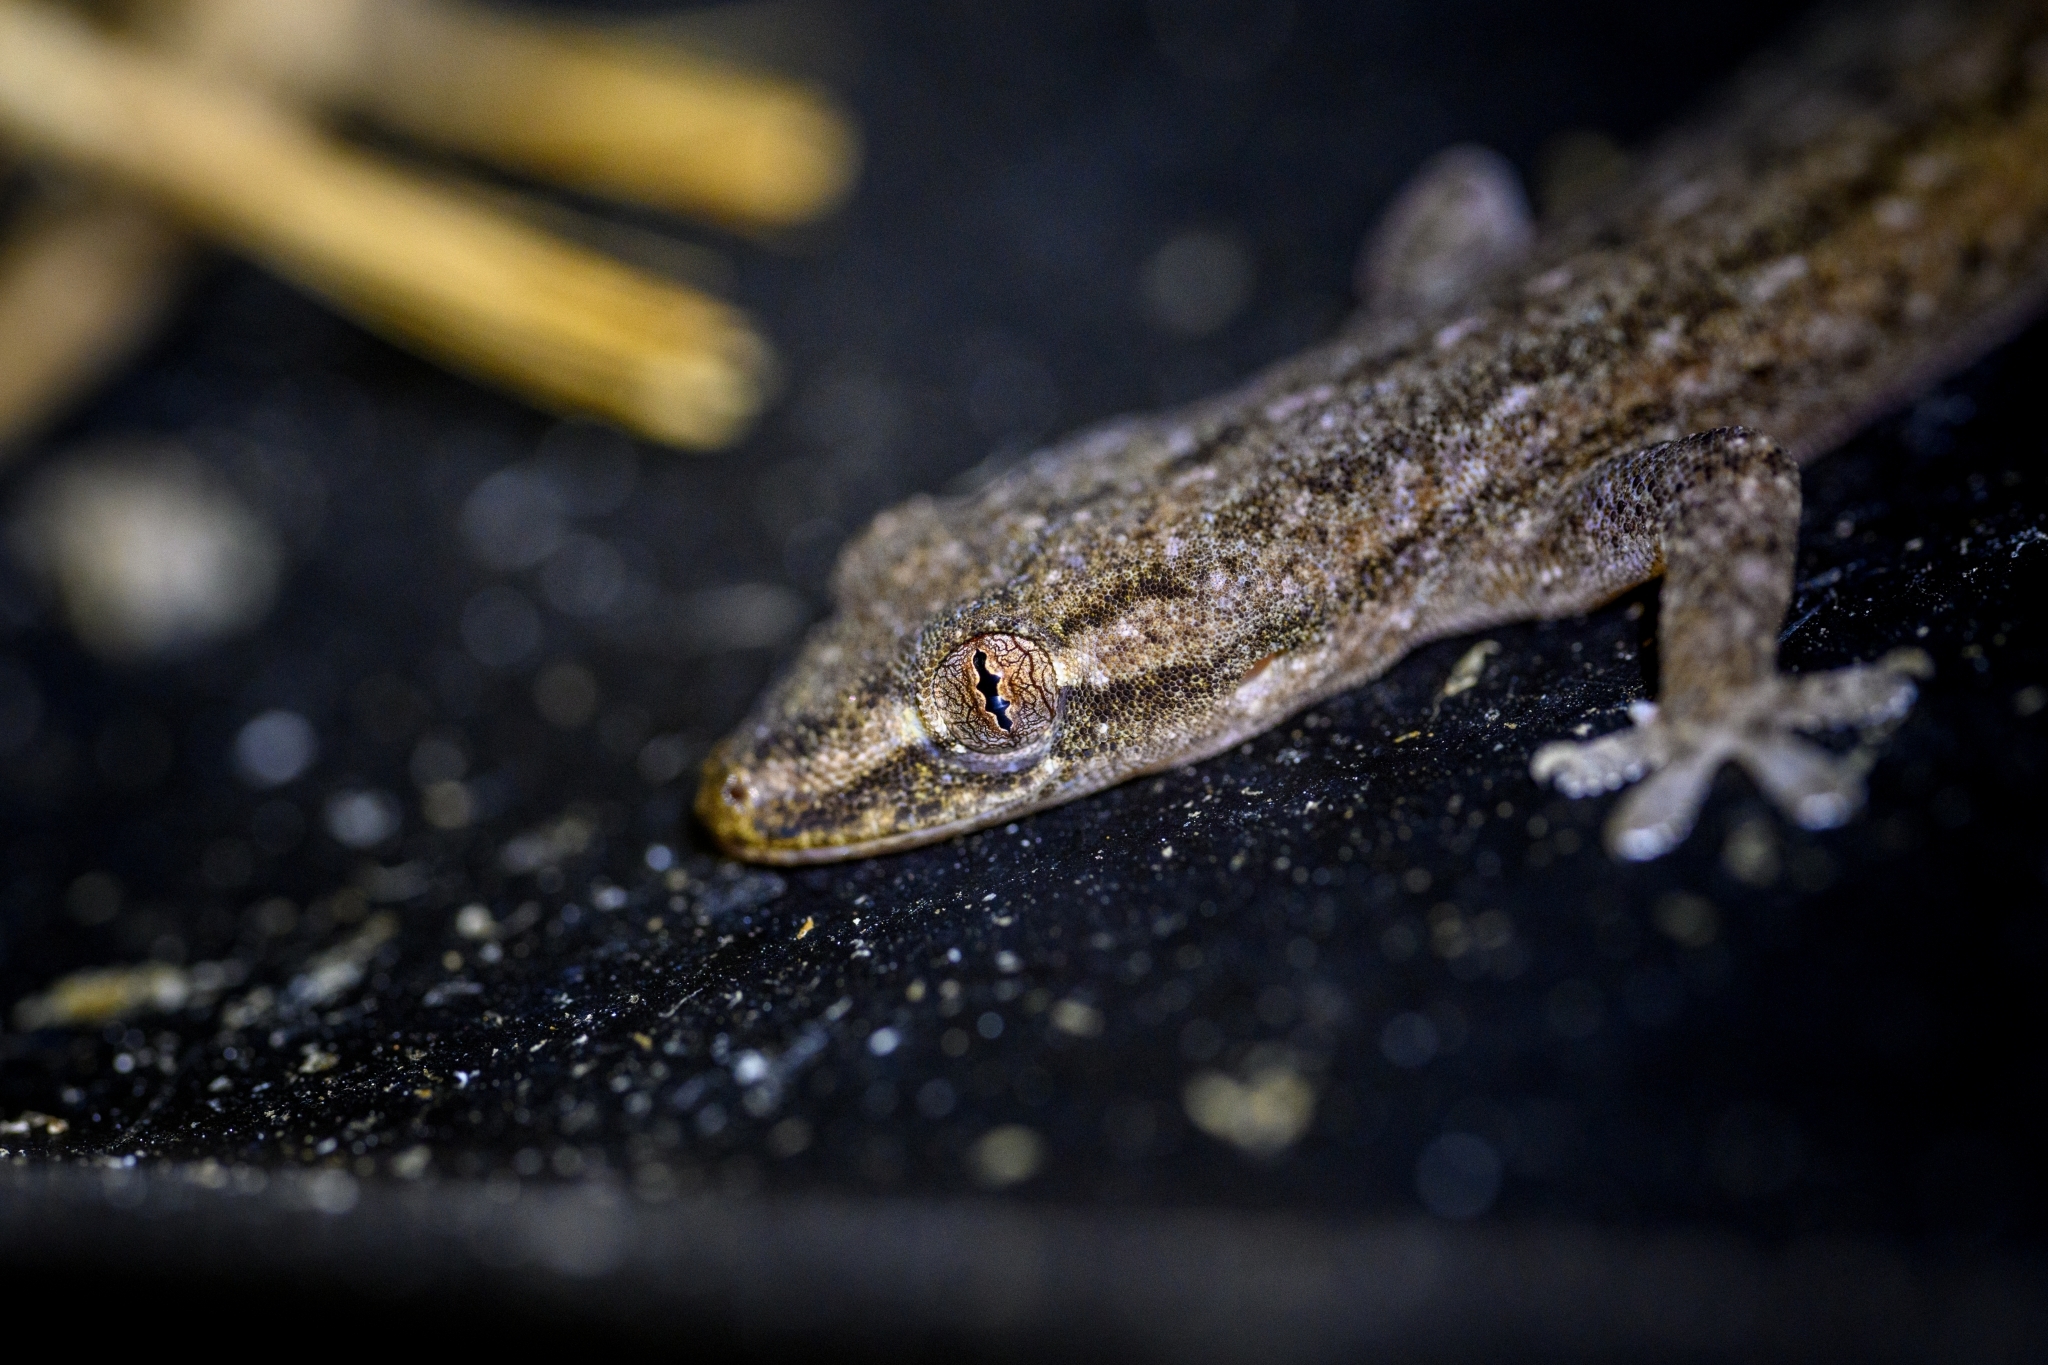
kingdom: Animalia
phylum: Chordata
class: Squamata
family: Gekkonidae
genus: Hemidactylus
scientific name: Hemidactylus frenatus
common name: Common house gecko
